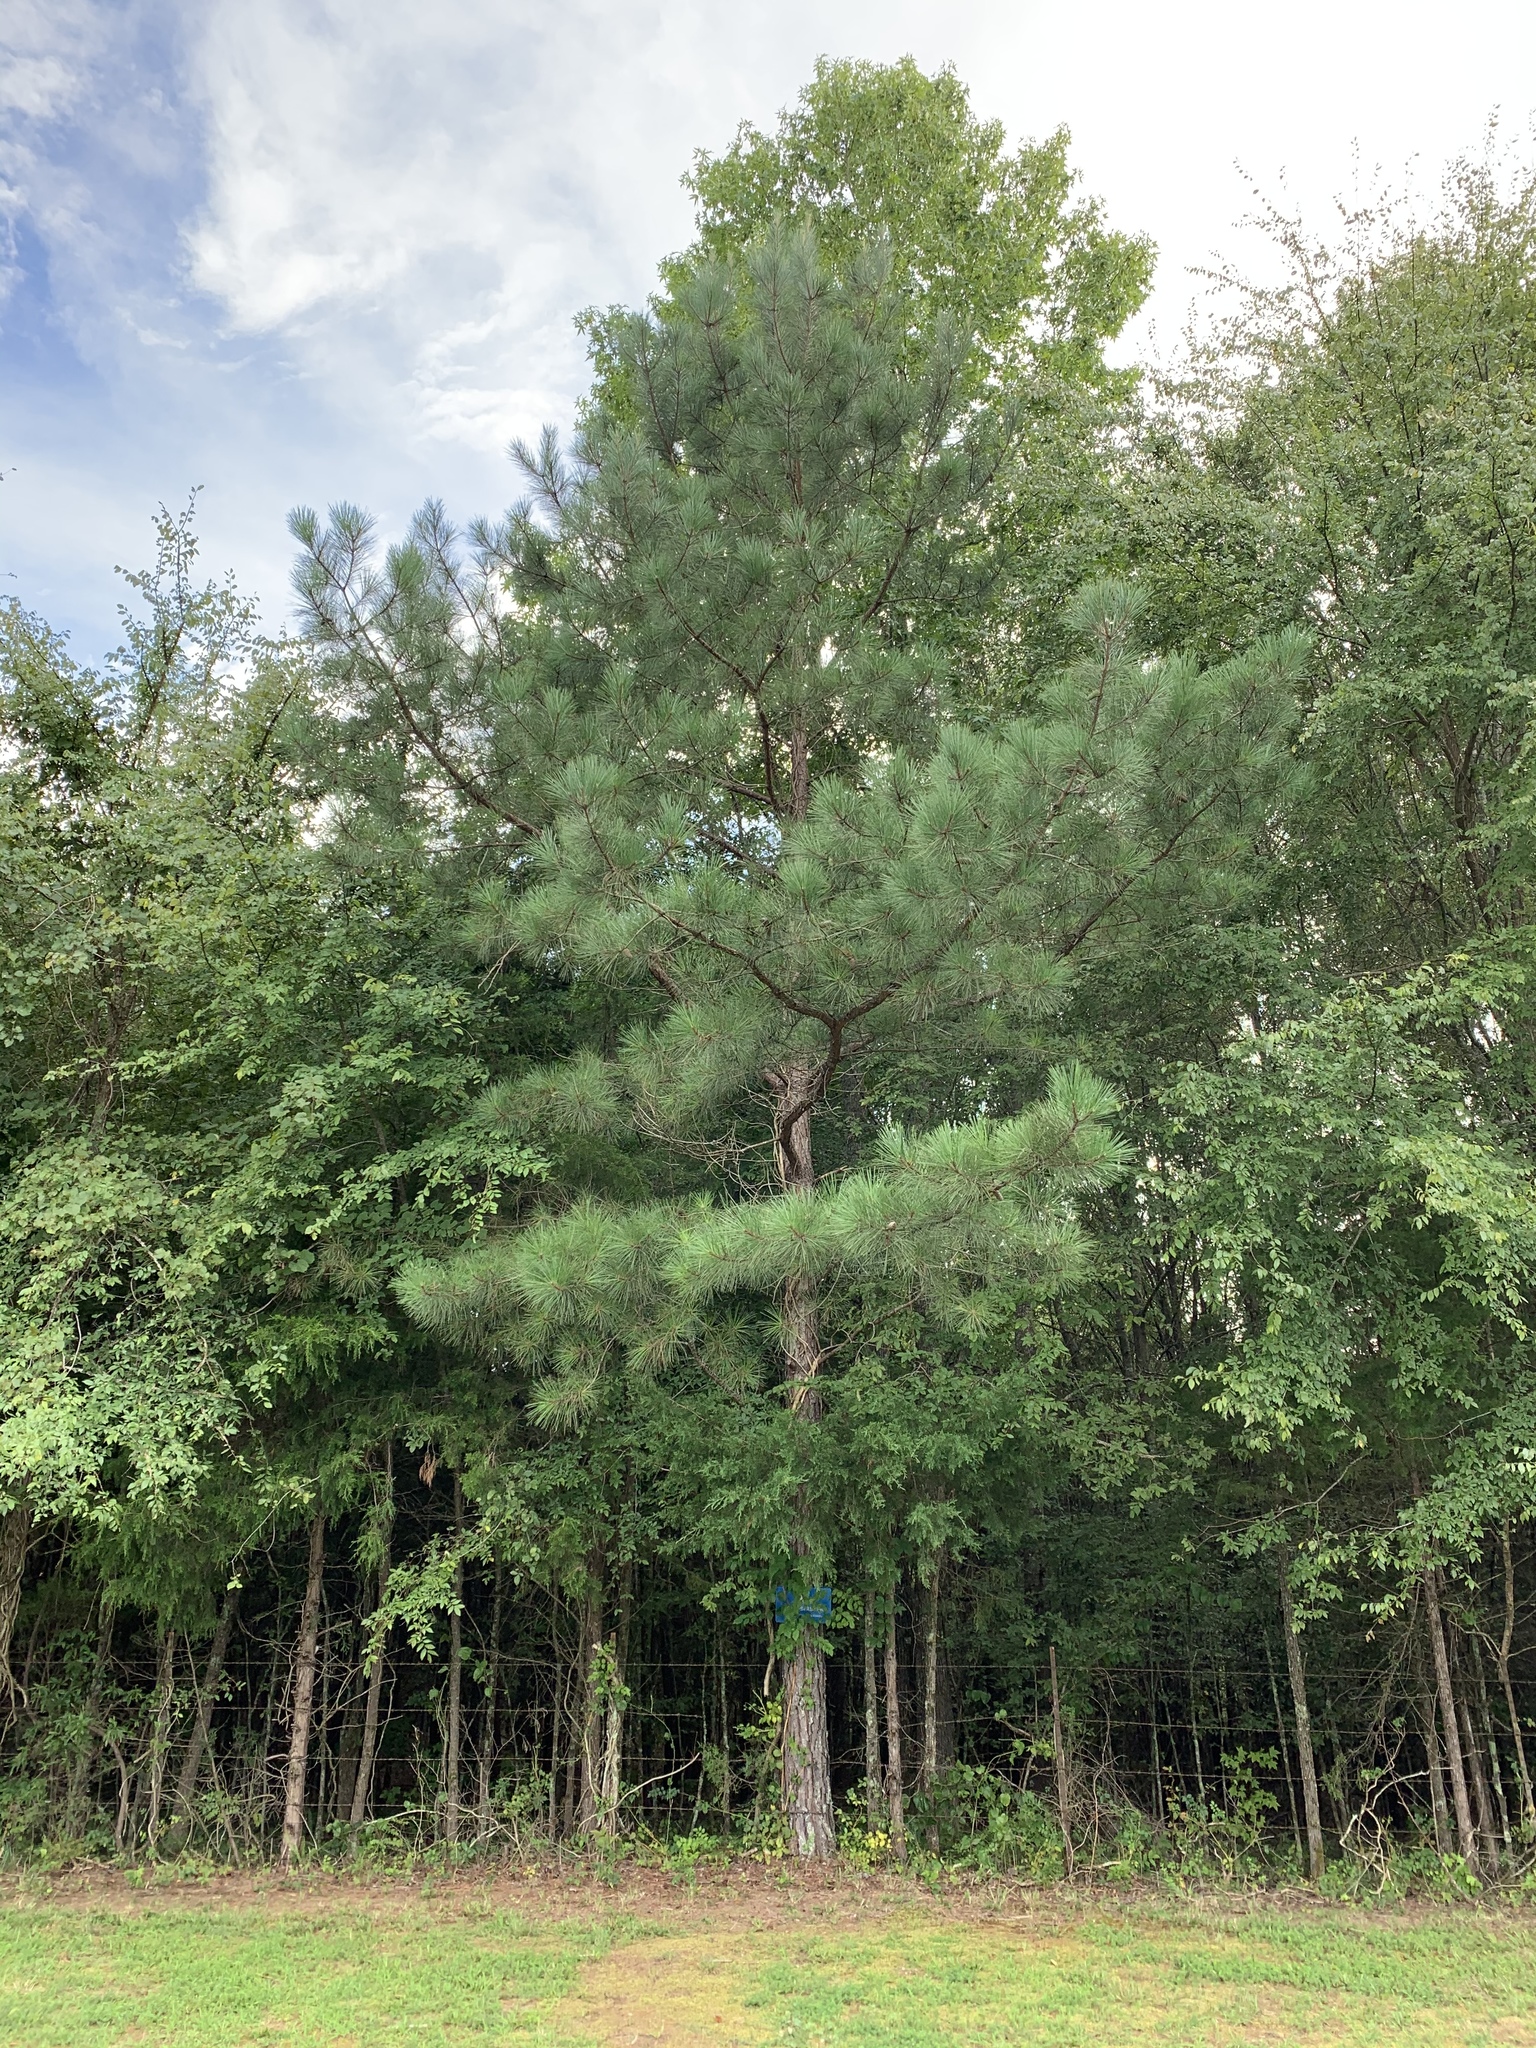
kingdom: Plantae
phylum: Tracheophyta
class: Pinopsida
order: Pinales
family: Pinaceae
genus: Pinus
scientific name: Pinus taeda
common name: Loblolly pine
